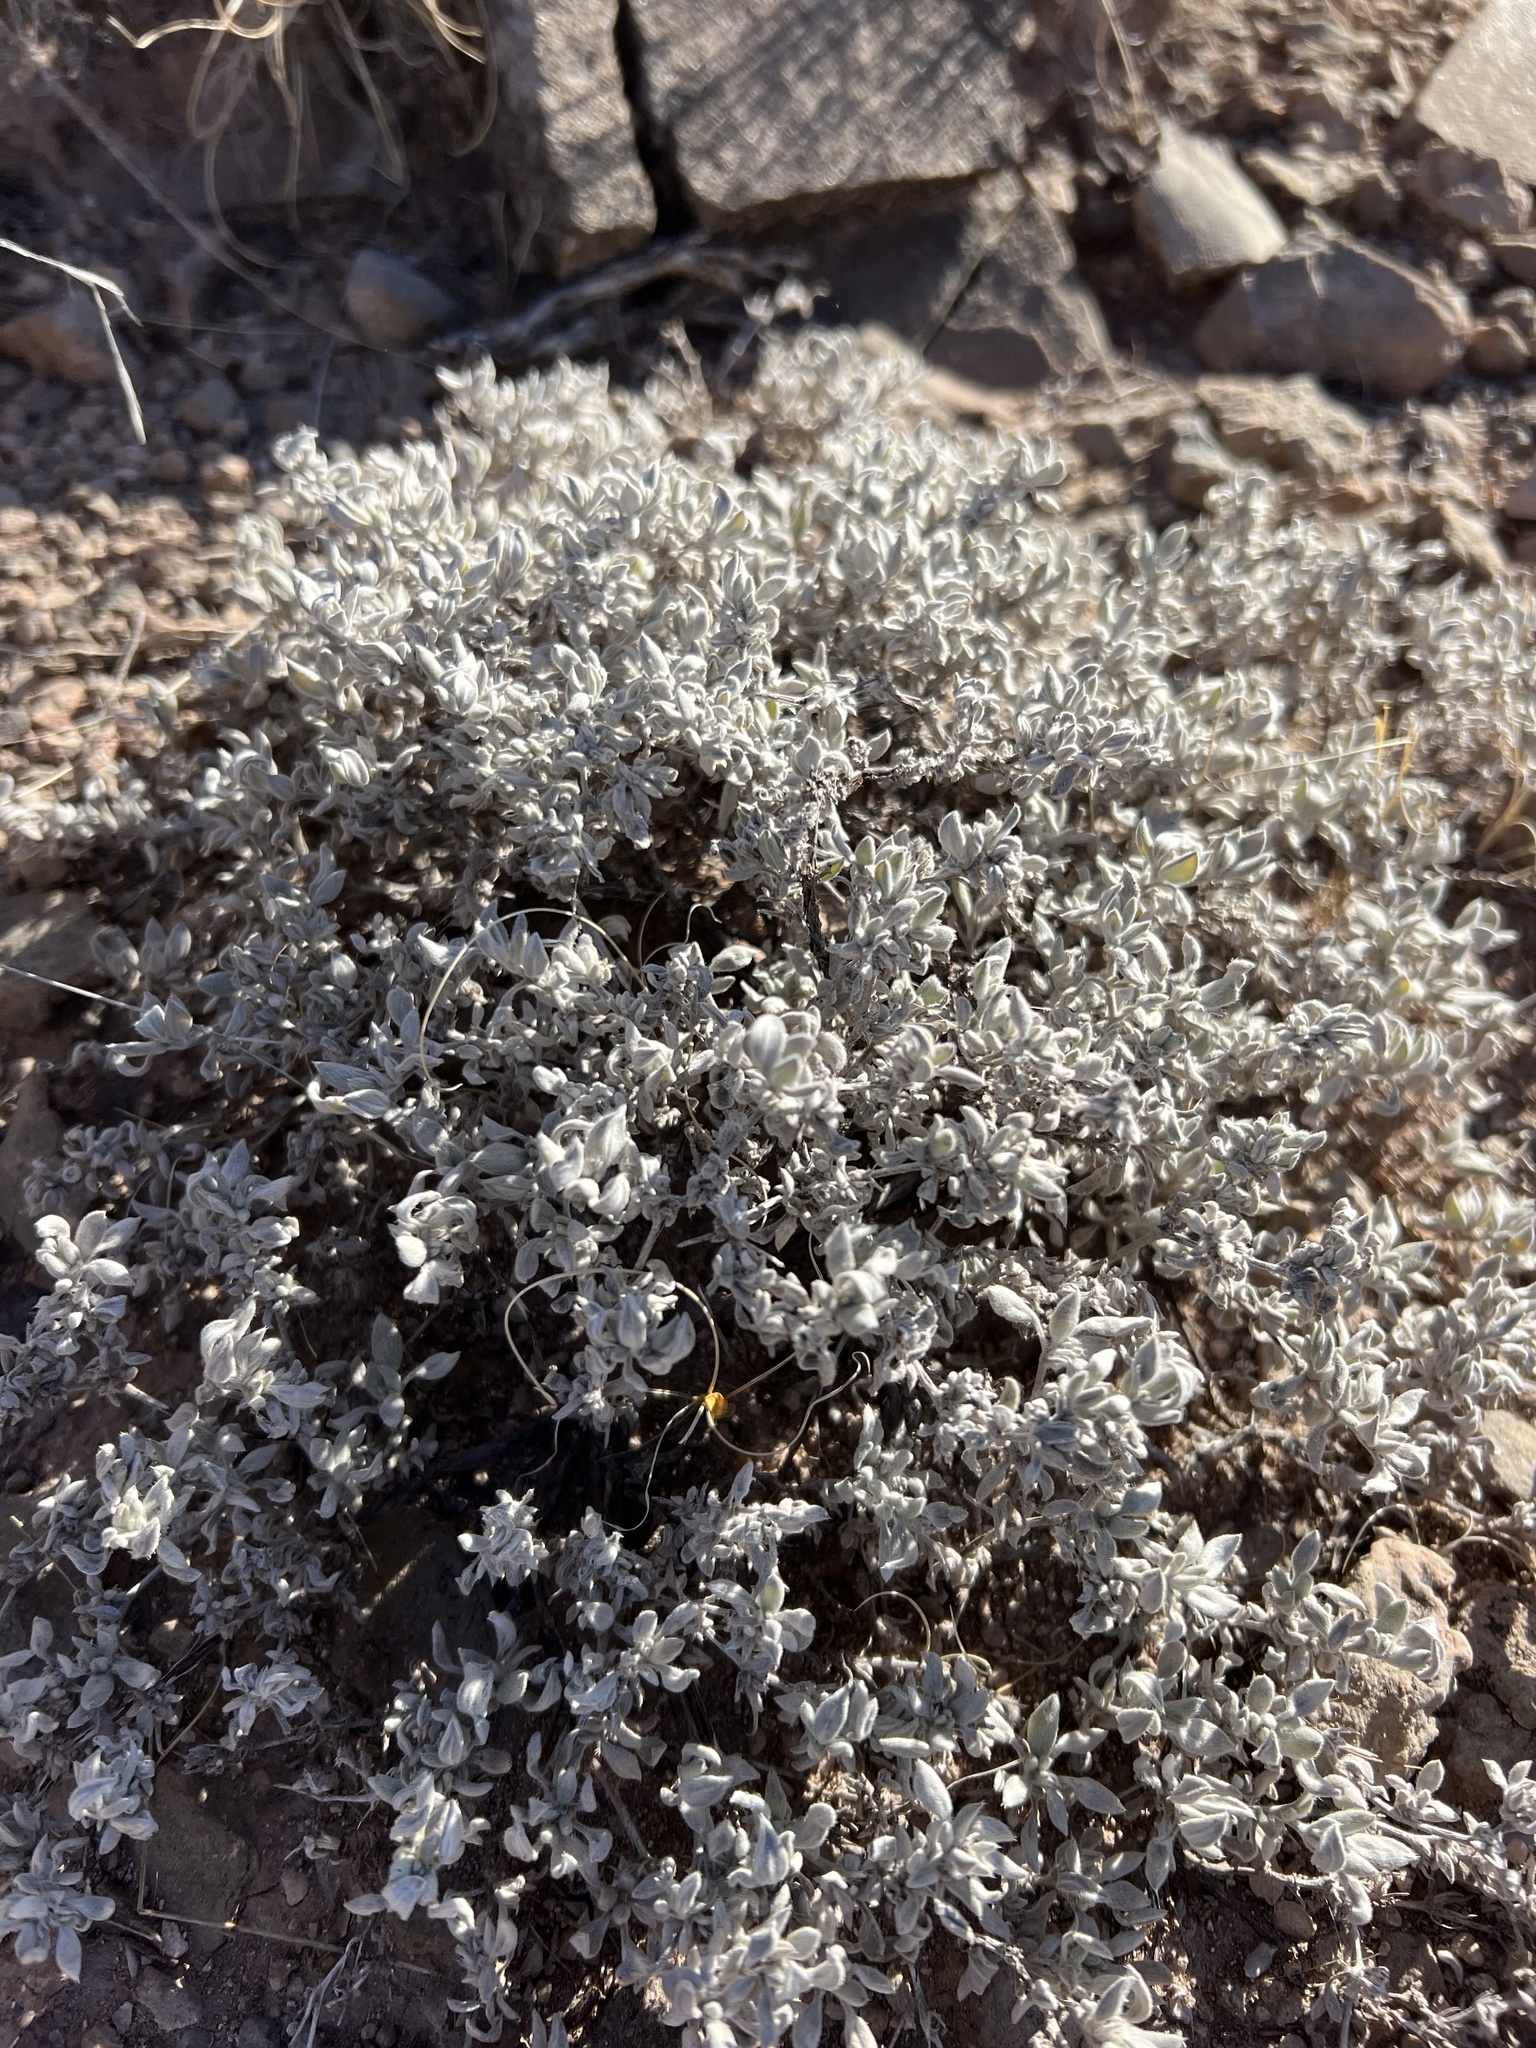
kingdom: Plantae
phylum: Tracheophyta
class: Magnoliopsida
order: Boraginales
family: Ehretiaceae
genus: Tiquilia
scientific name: Tiquilia canescens
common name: Hairy tiquilia
